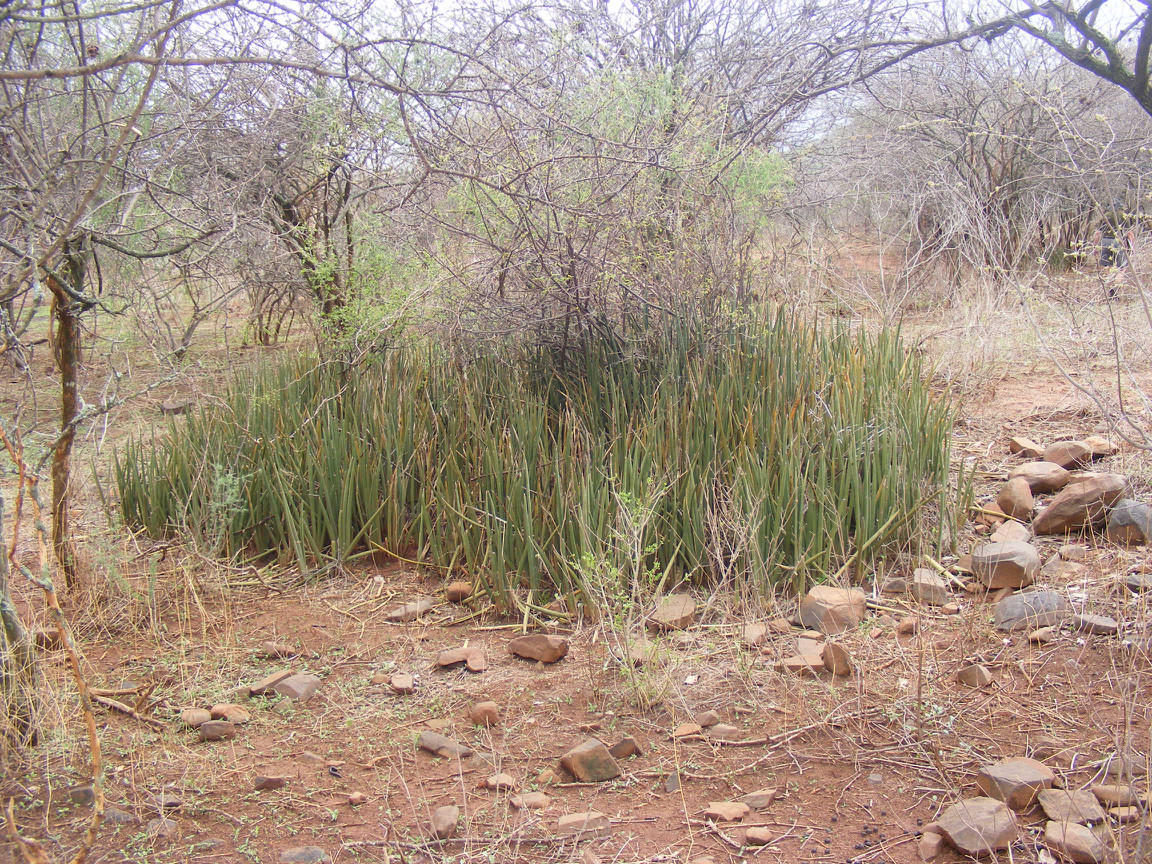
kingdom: Plantae
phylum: Tracheophyta
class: Liliopsida
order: Asparagales
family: Asparagaceae
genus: Dracaena
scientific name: Dracaena pearsonii
